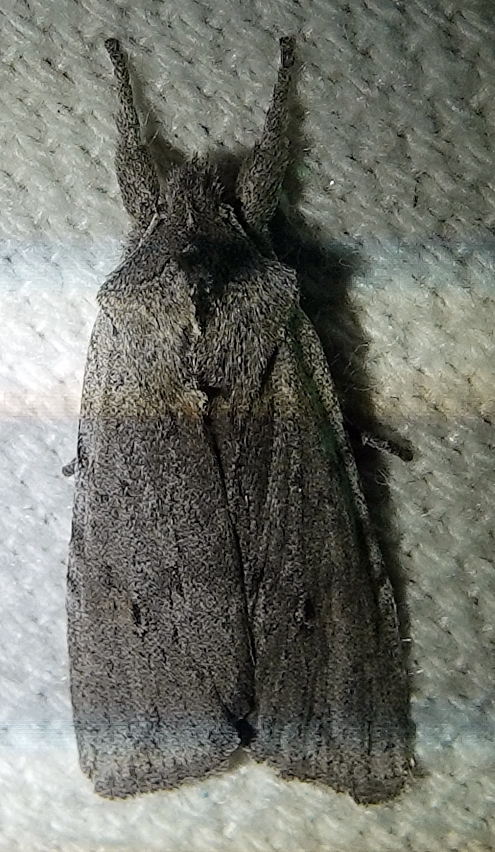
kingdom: Animalia
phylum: Arthropoda
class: Insecta
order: Lepidoptera
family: Noctuidae
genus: Lithophane
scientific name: Lithophane itata
